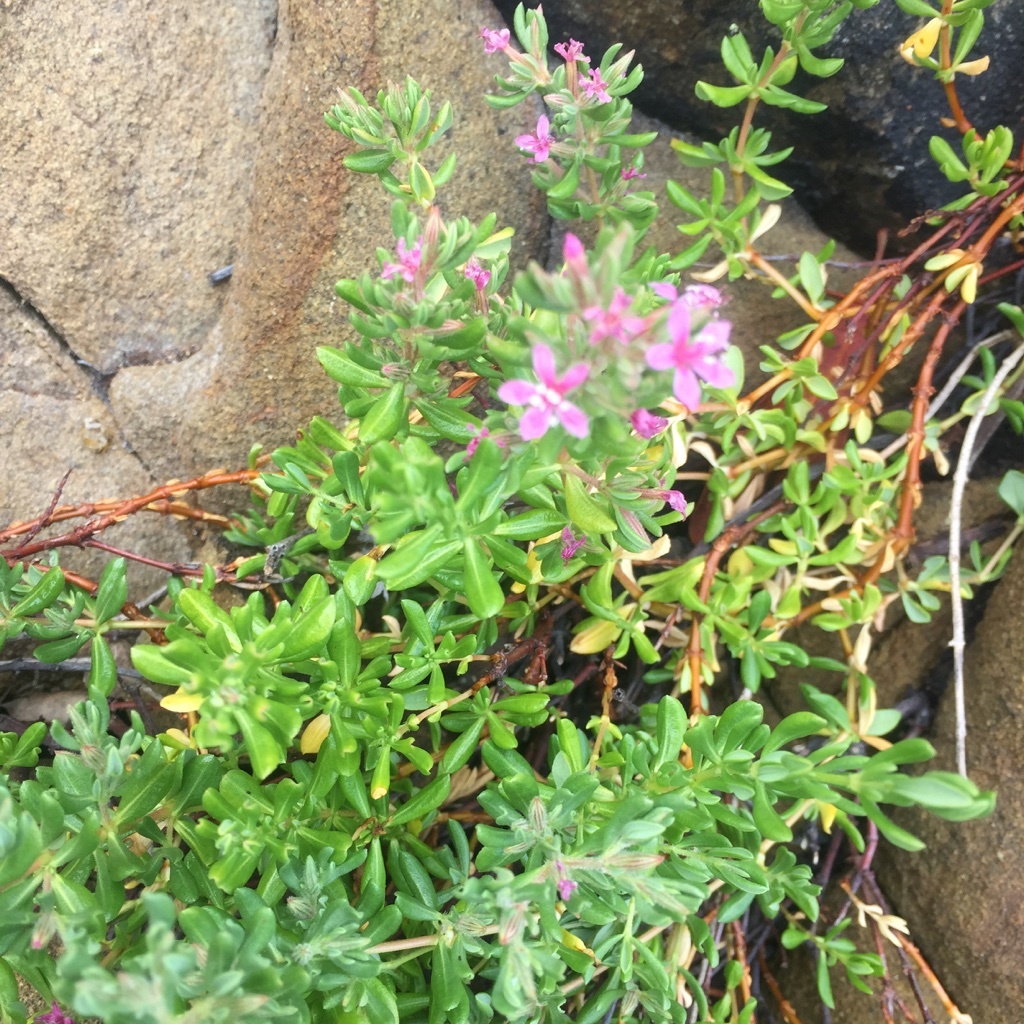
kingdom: Plantae
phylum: Tracheophyta
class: Magnoliopsida
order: Caryophyllales
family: Frankeniaceae
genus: Frankenia
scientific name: Frankenia salina
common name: Alkali seaheath
